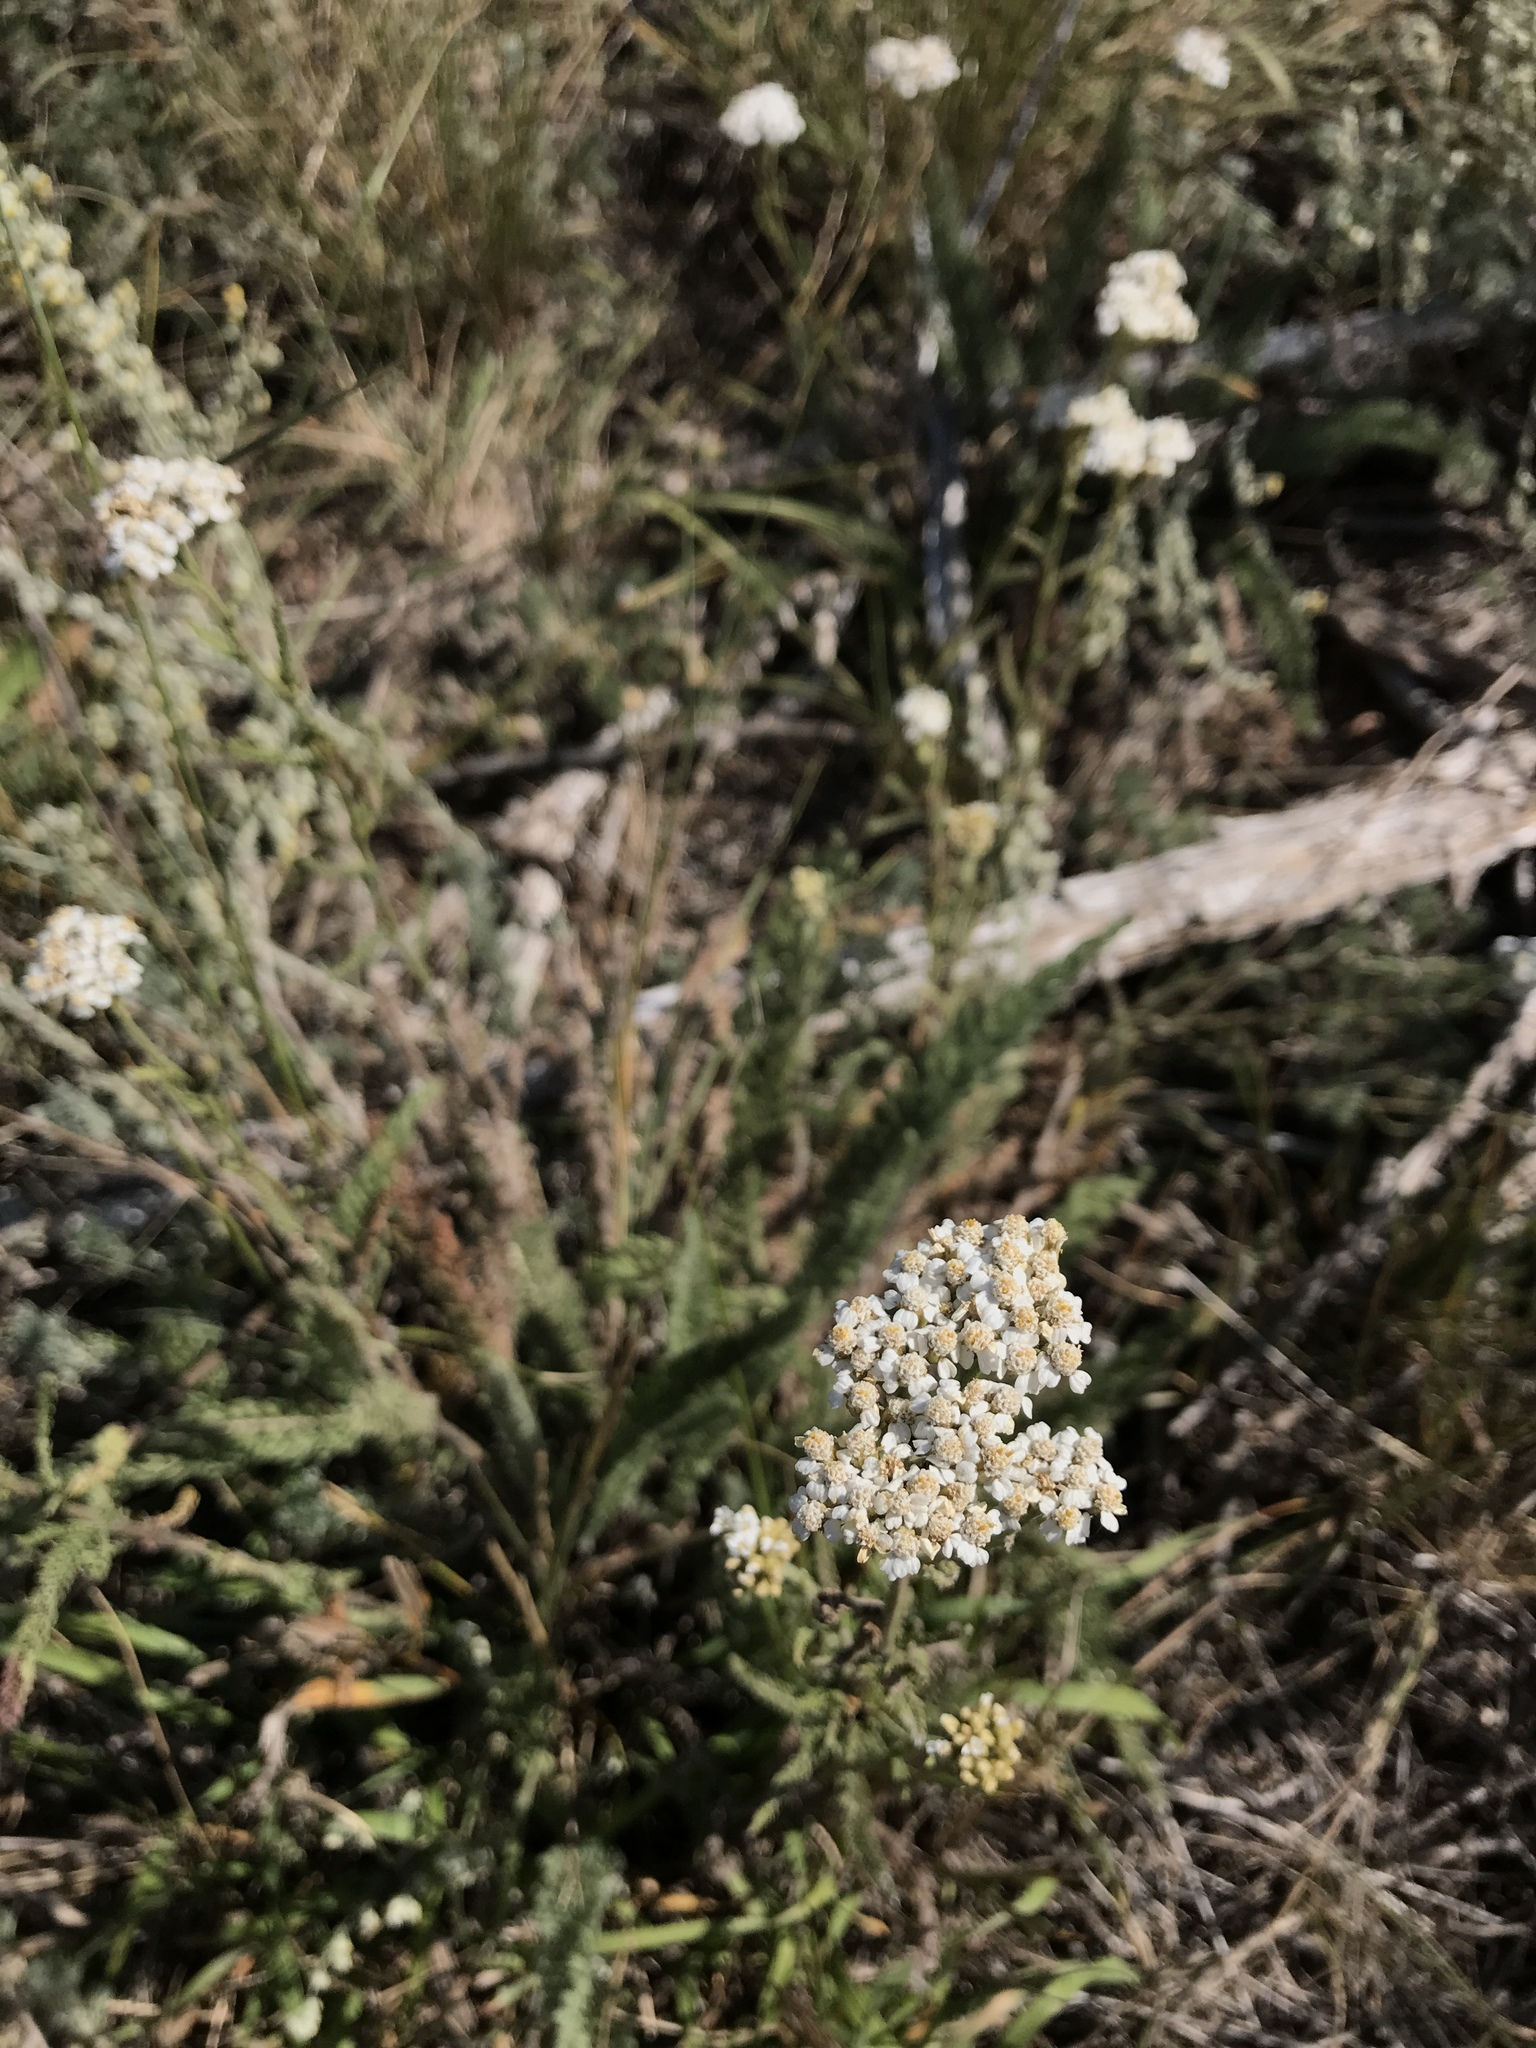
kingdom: Plantae
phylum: Tracheophyta
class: Magnoliopsida
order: Asterales
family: Asteraceae
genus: Achillea
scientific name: Achillea millefolium
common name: Yarrow
